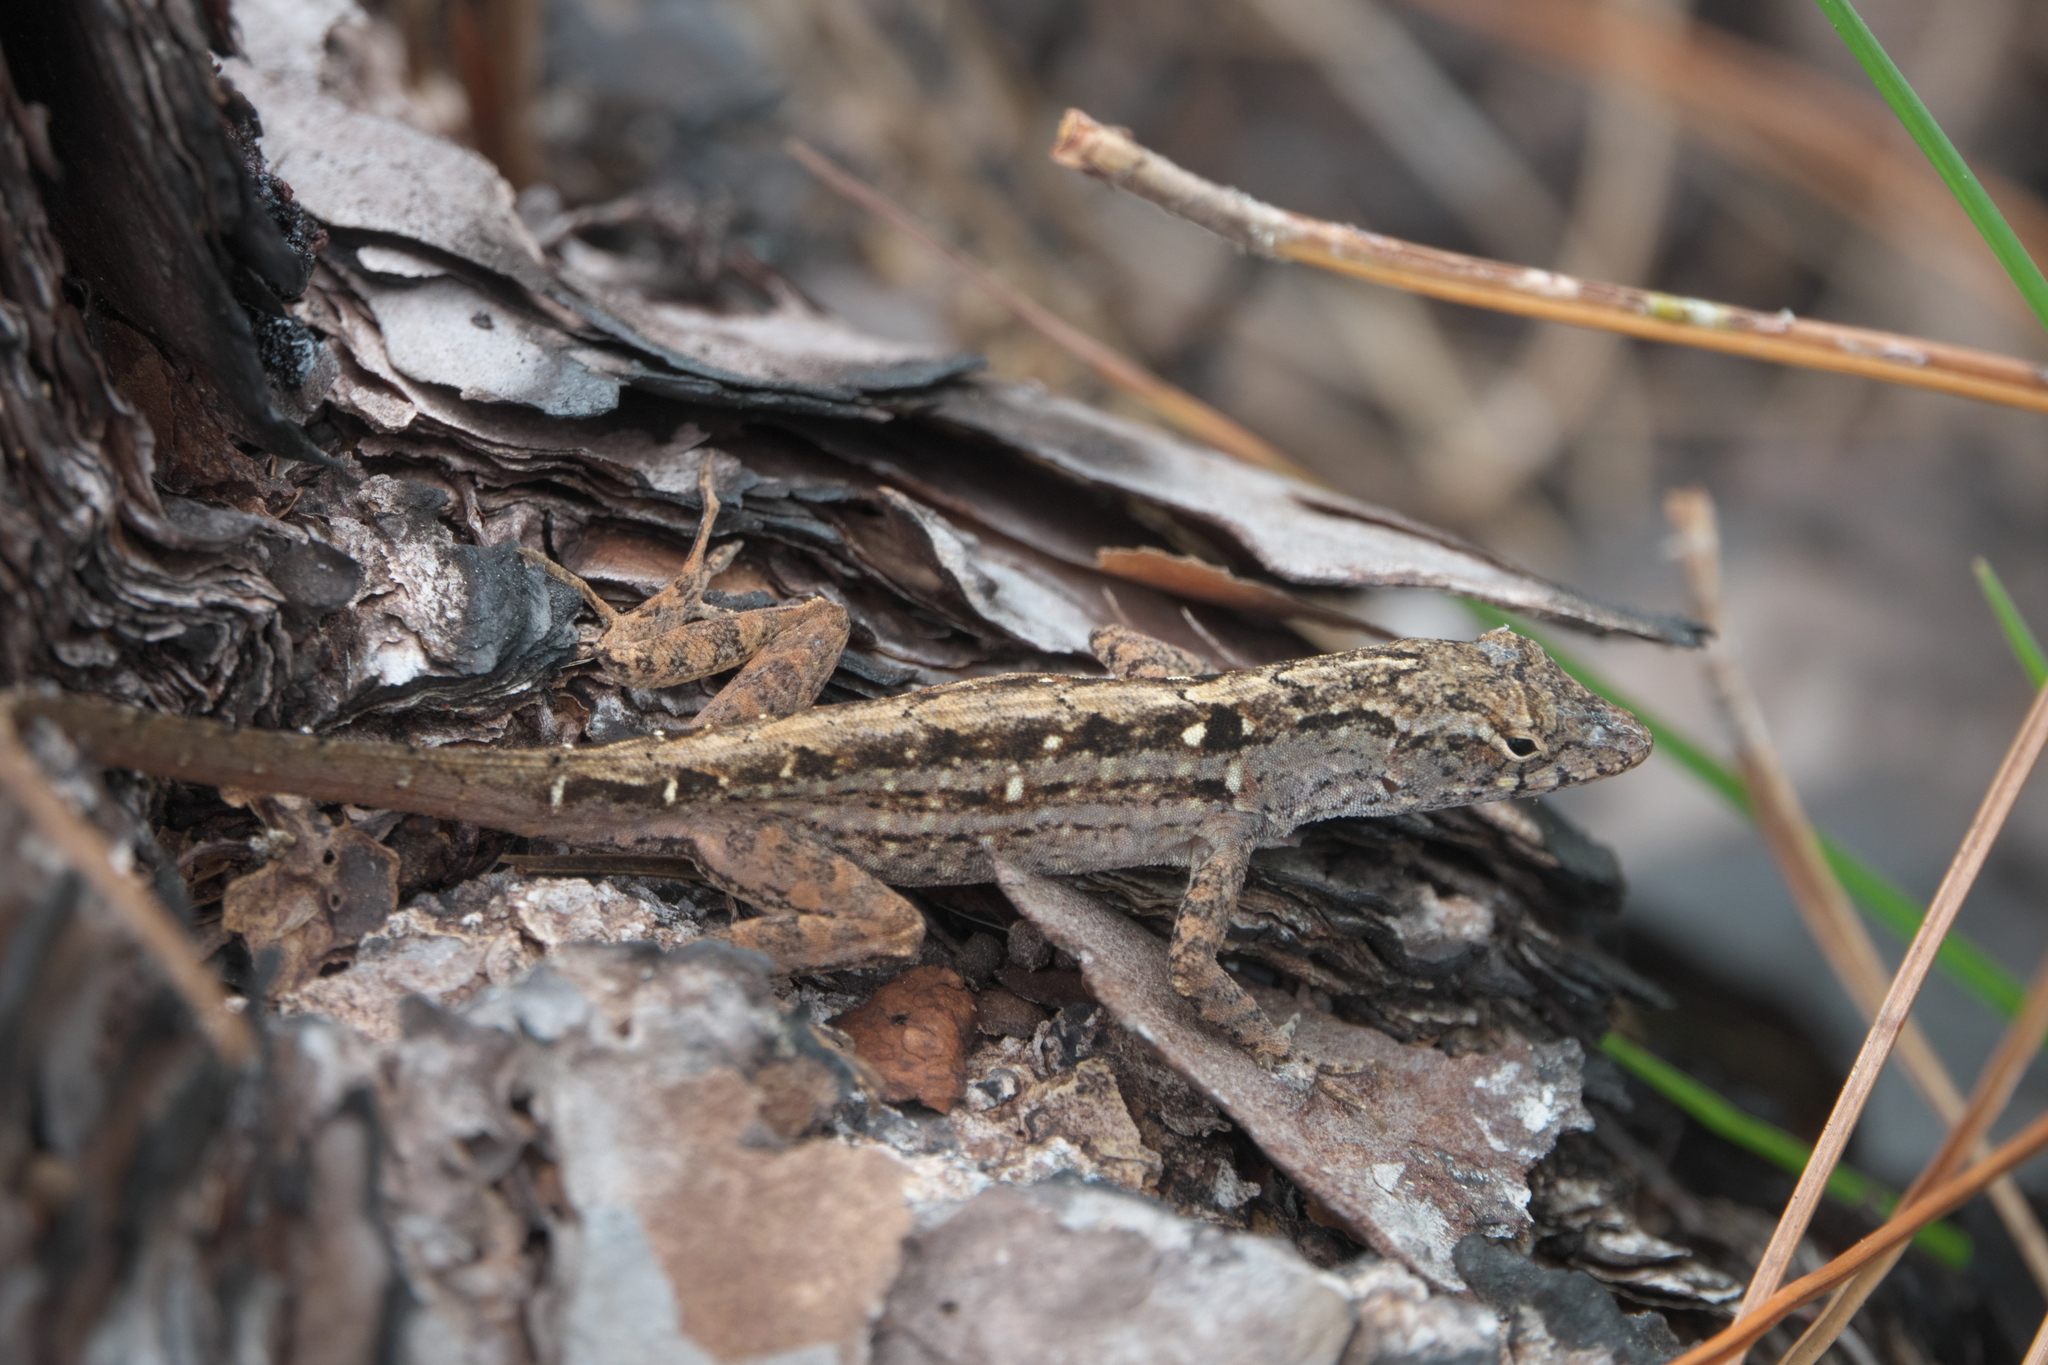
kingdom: Animalia
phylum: Chordata
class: Squamata
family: Dactyloidae
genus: Anolis
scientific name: Anolis sagrei
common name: Brown anole
